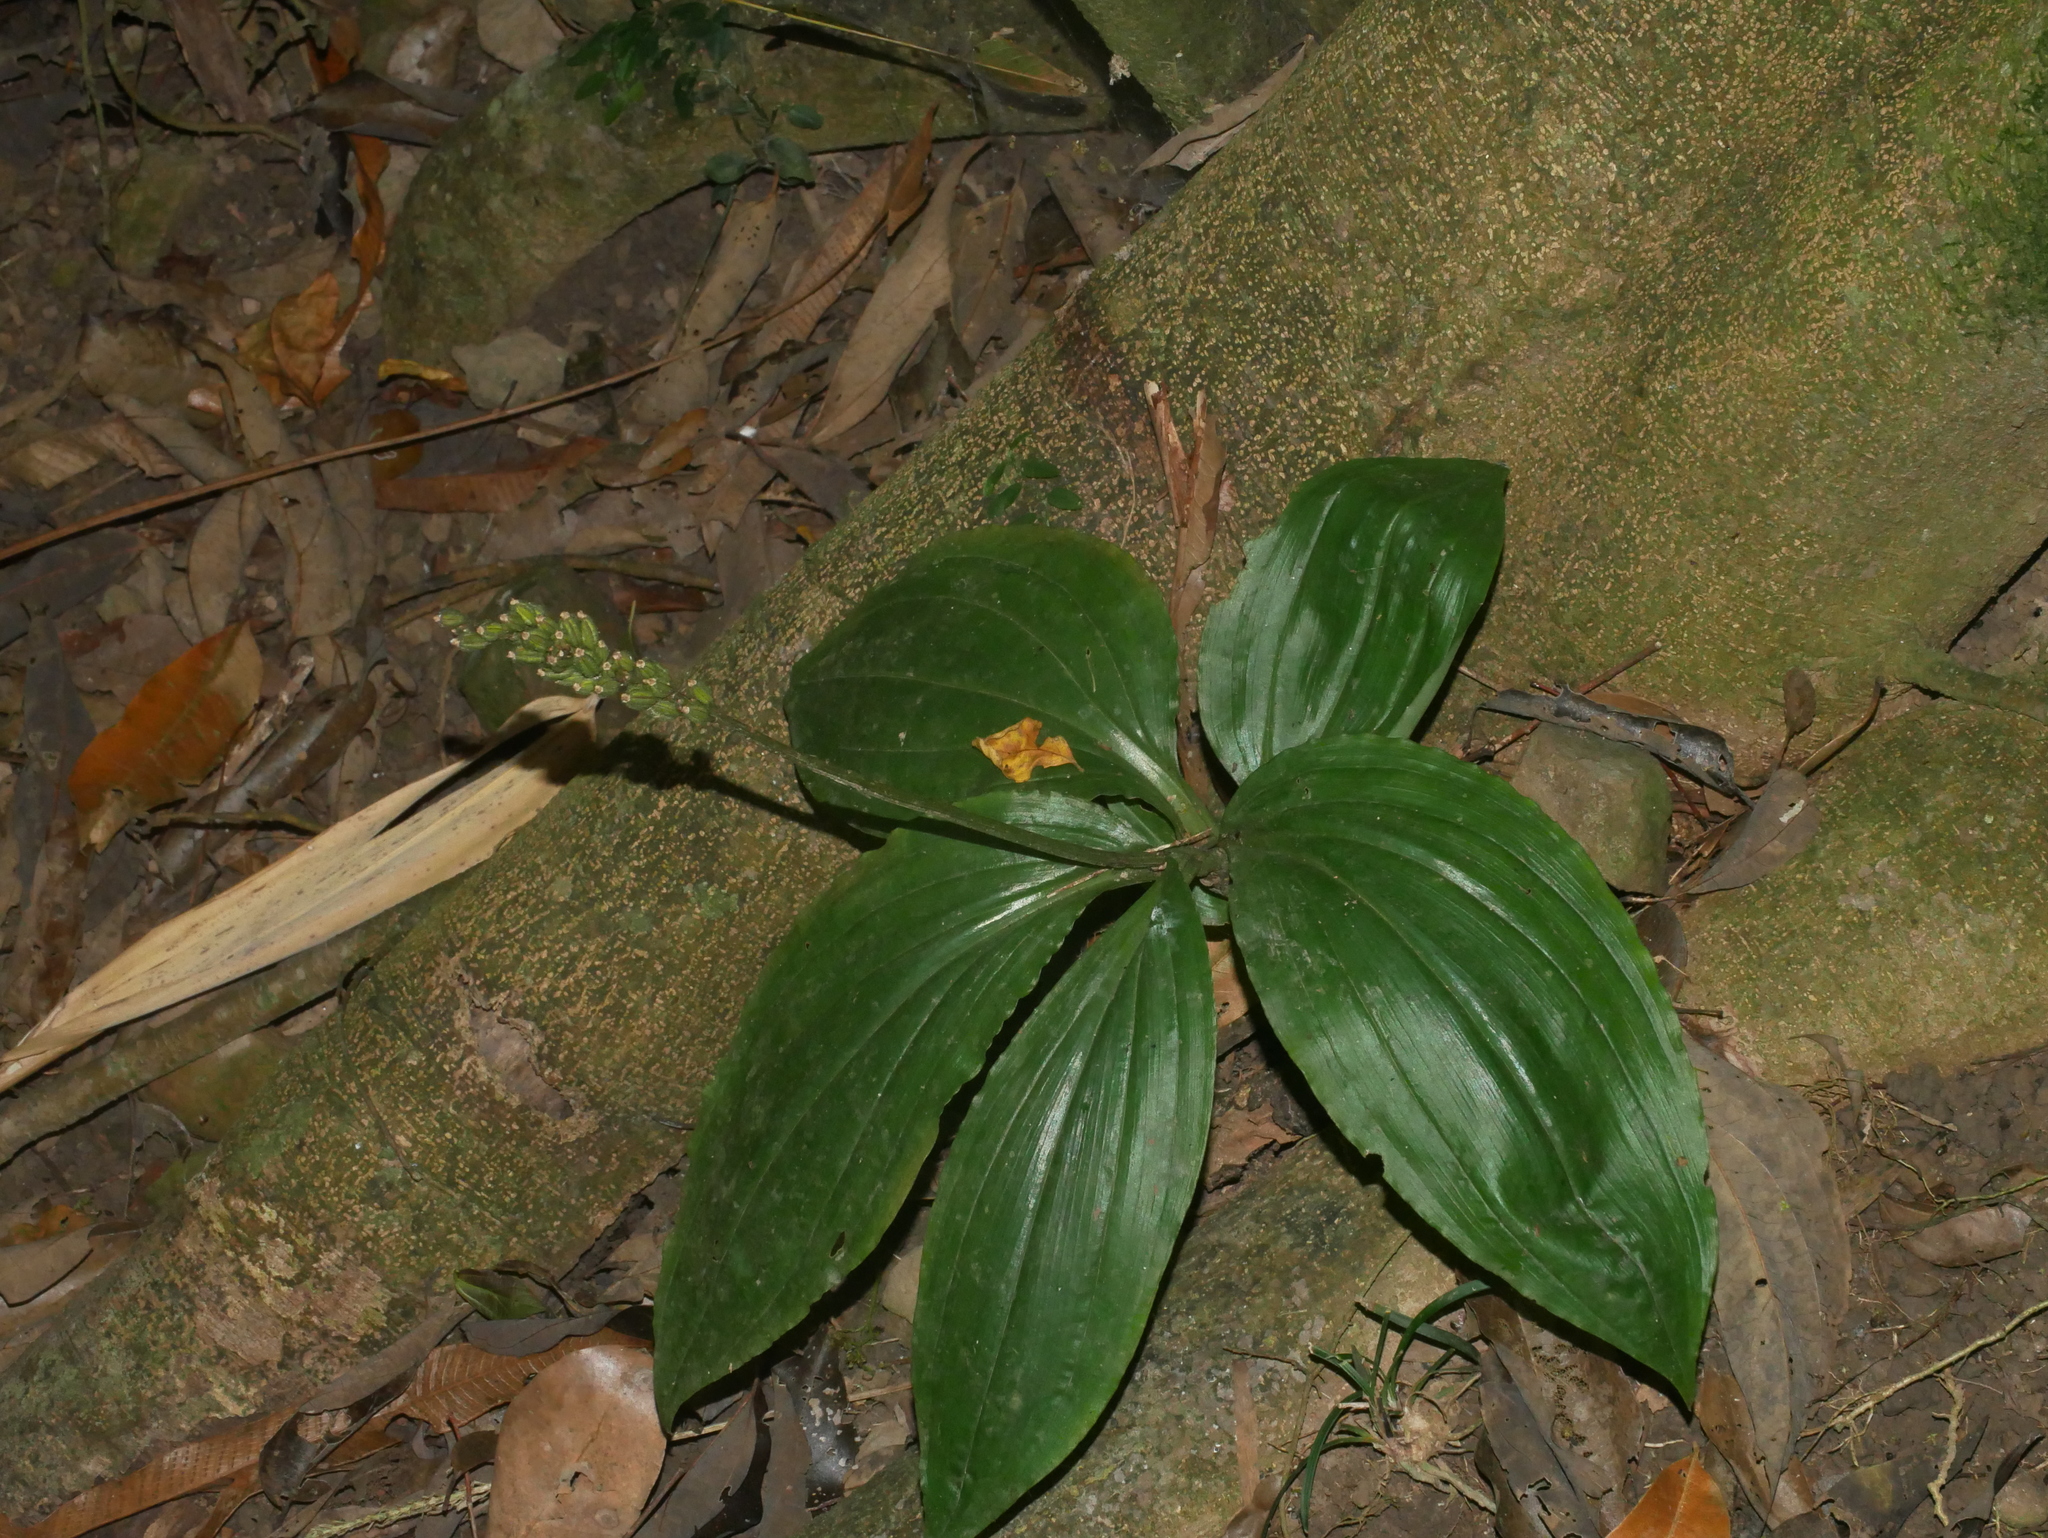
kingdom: Plantae
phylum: Tracheophyta
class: Liliopsida
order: Asparagales
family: Orchidaceae
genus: Dienia
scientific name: Dienia ophrydis
